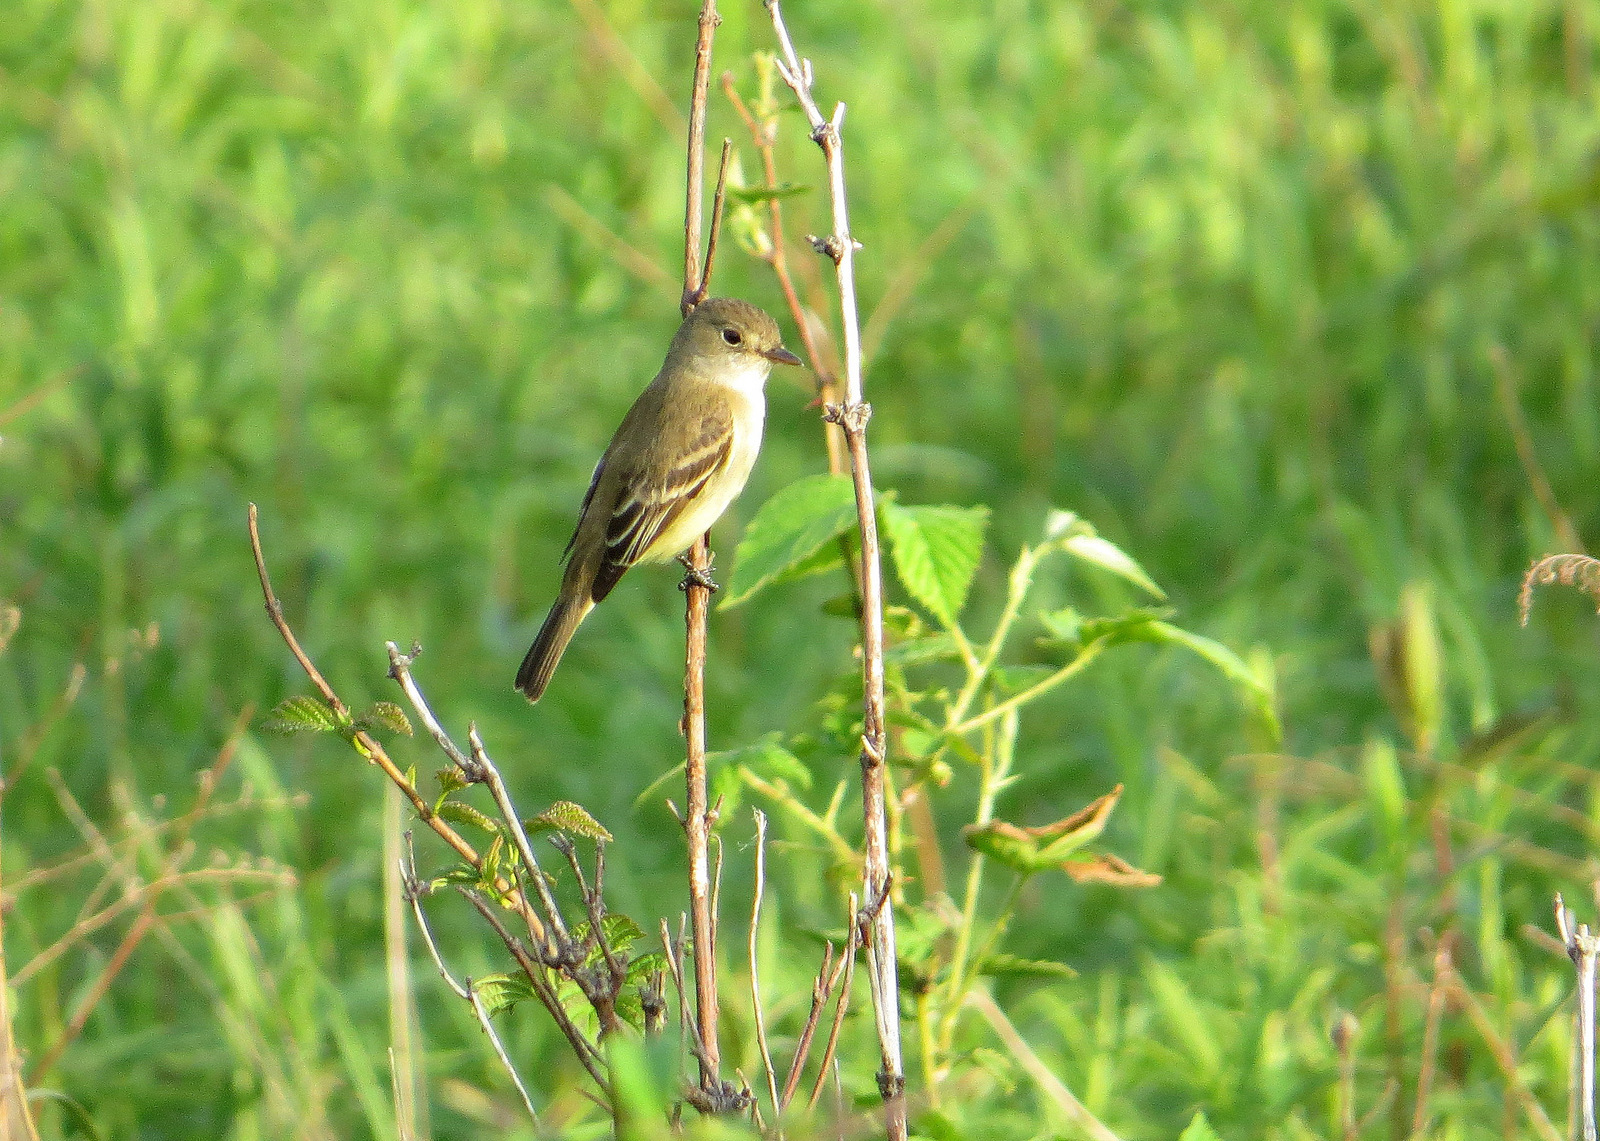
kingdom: Animalia
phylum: Chordata
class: Aves
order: Passeriformes
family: Tyrannidae
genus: Empidonax
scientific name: Empidonax
